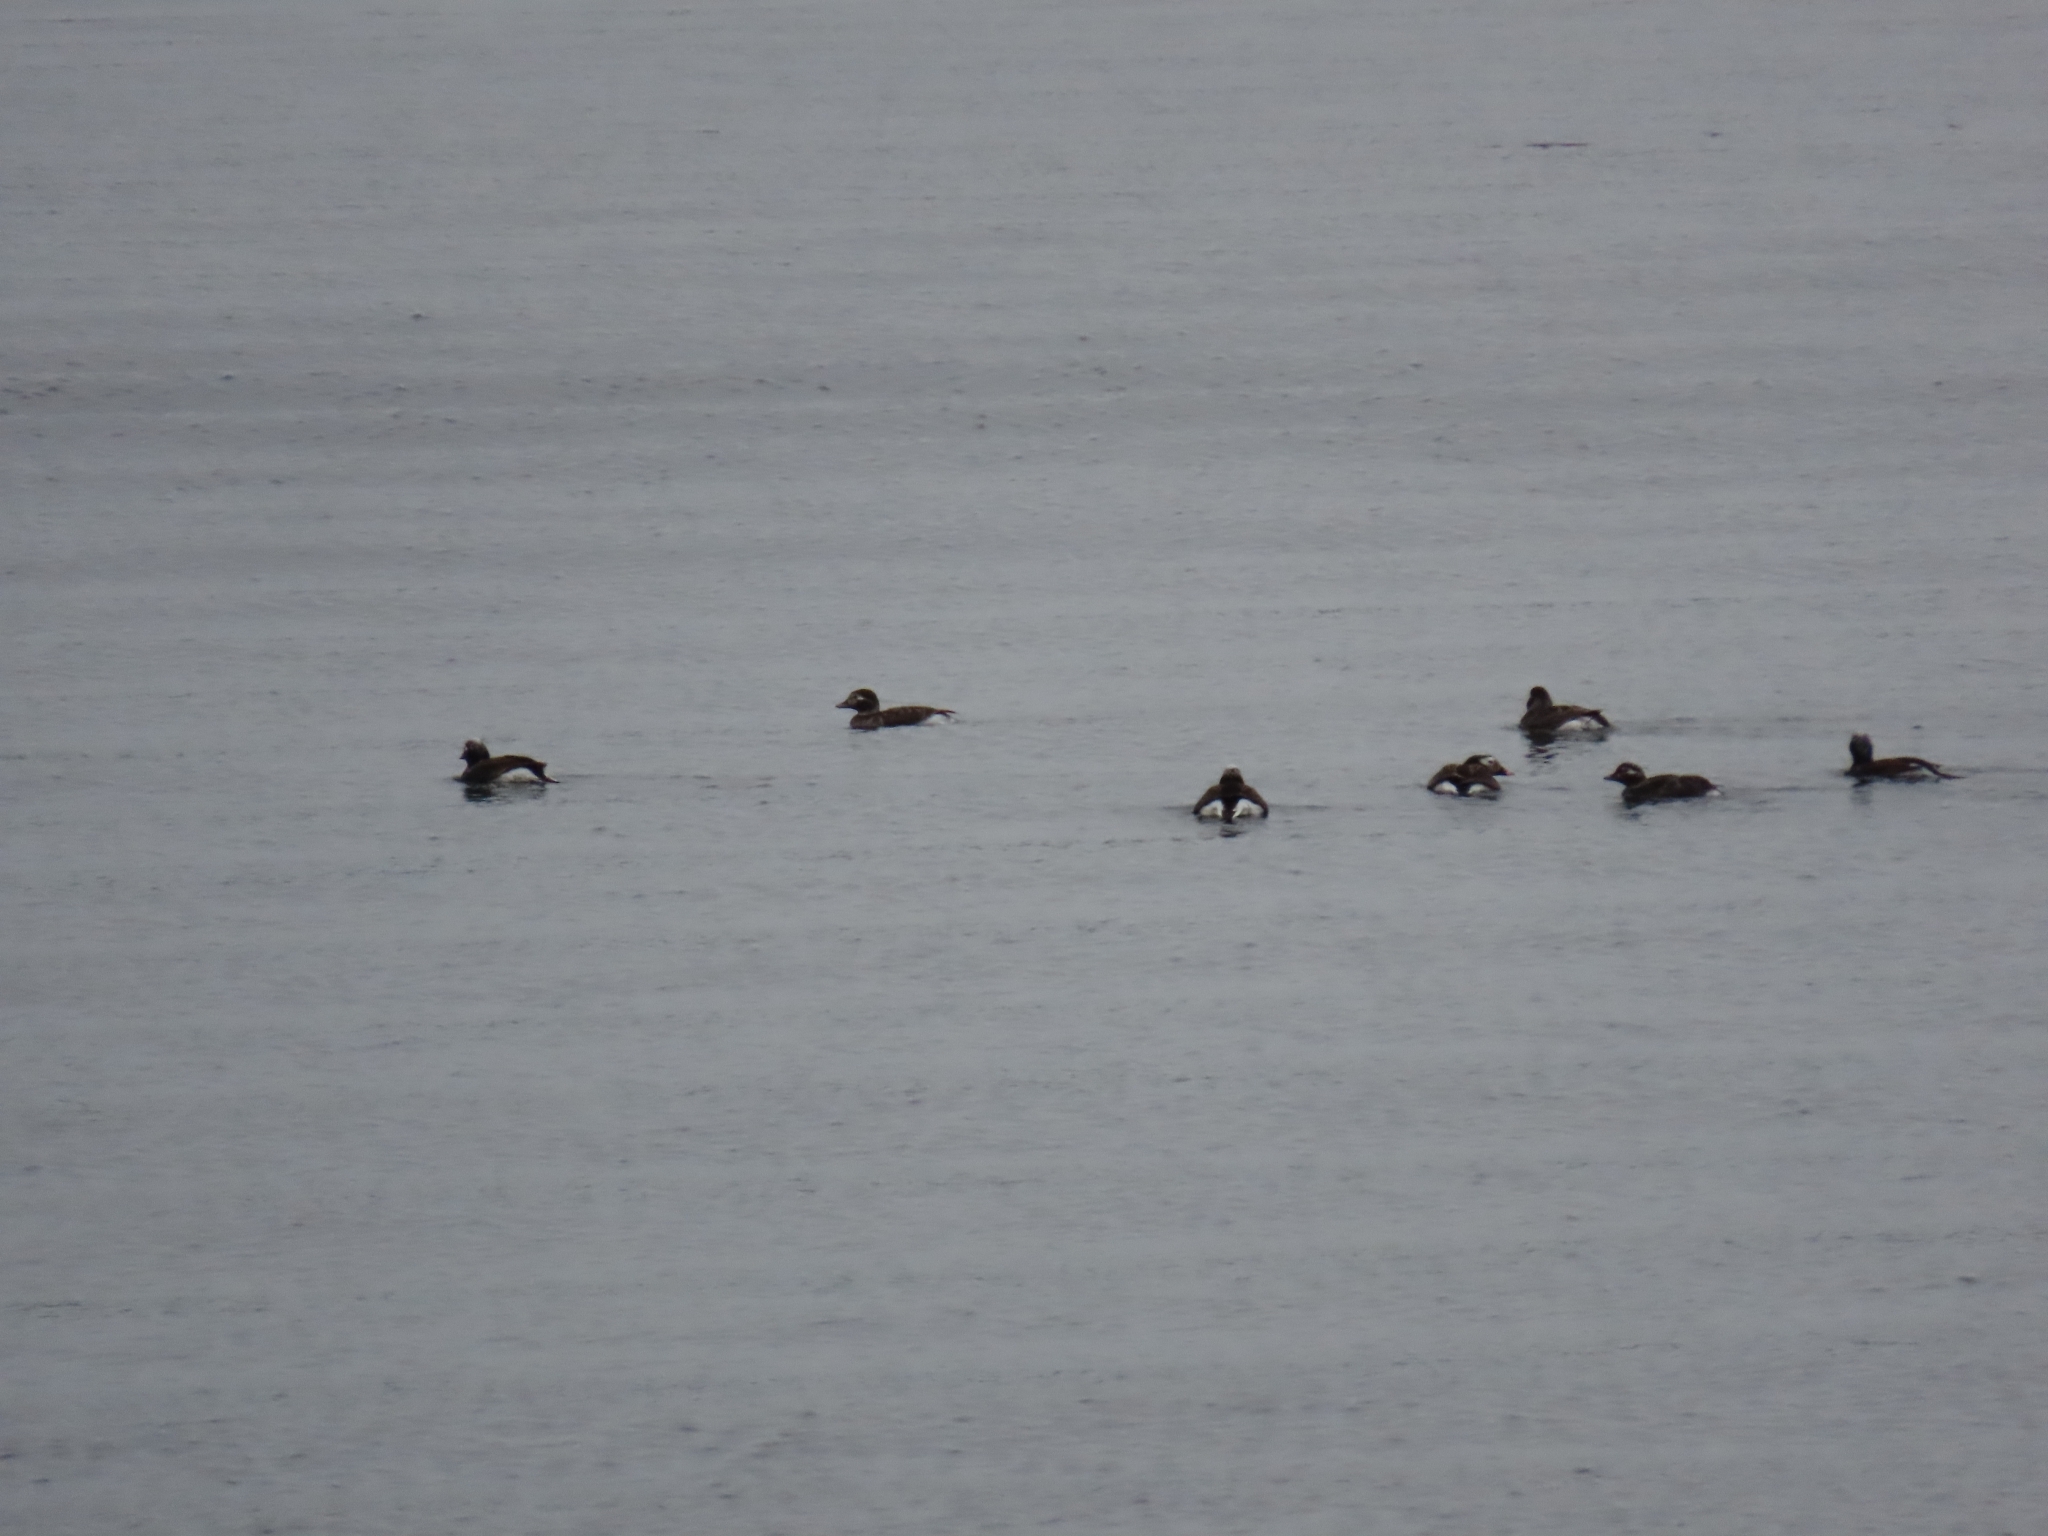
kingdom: Animalia
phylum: Chordata
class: Aves
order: Anseriformes
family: Anatidae
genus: Clangula
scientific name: Clangula hyemalis
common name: Long-tailed duck
